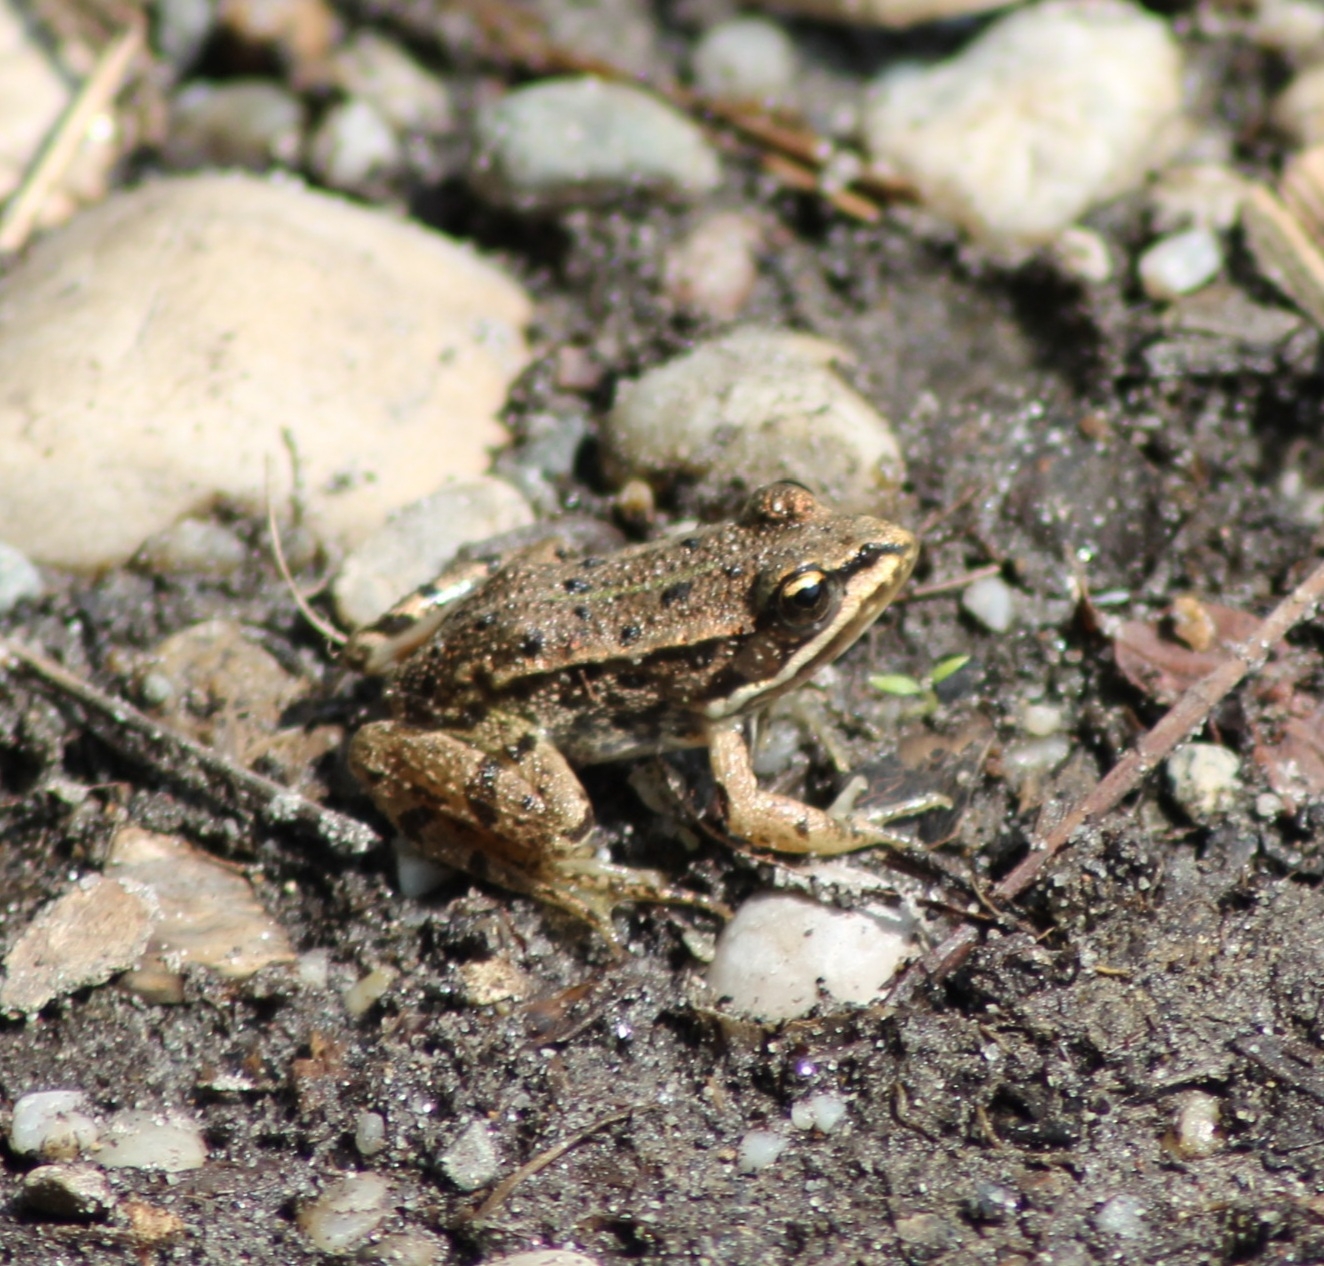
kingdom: Animalia
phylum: Chordata
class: Amphibia
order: Anura
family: Ranidae
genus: Pelophylax
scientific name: Pelophylax
